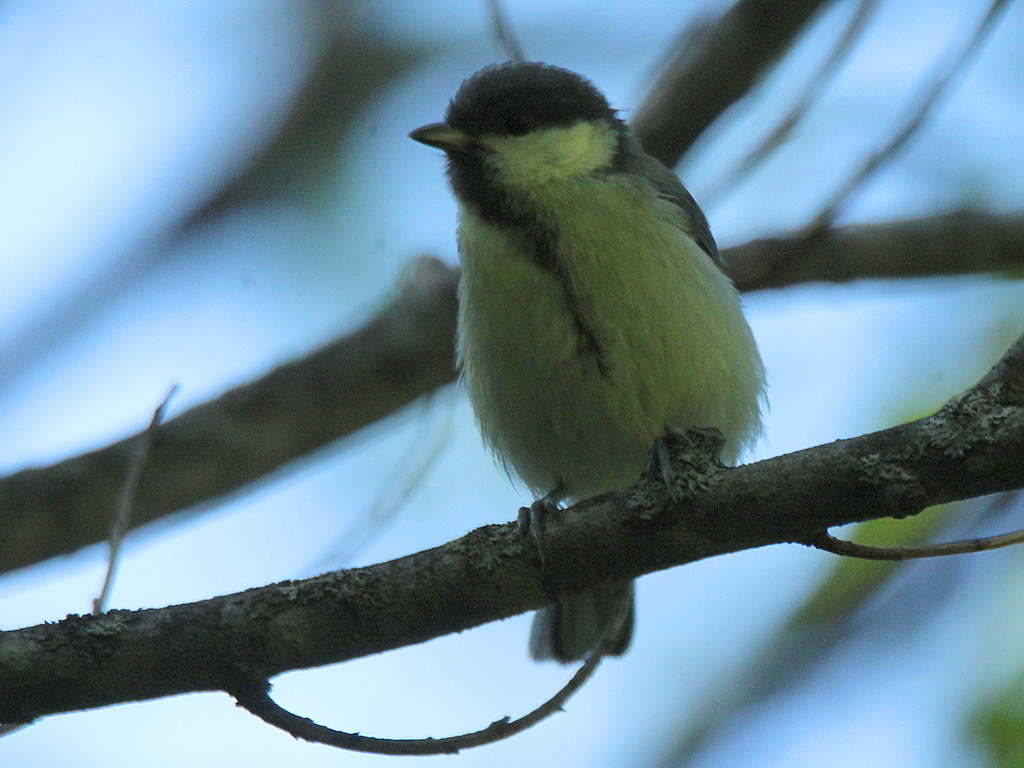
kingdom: Animalia
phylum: Chordata
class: Aves
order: Passeriformes
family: Paridae
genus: Parus
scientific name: Parus major
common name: Great tit
